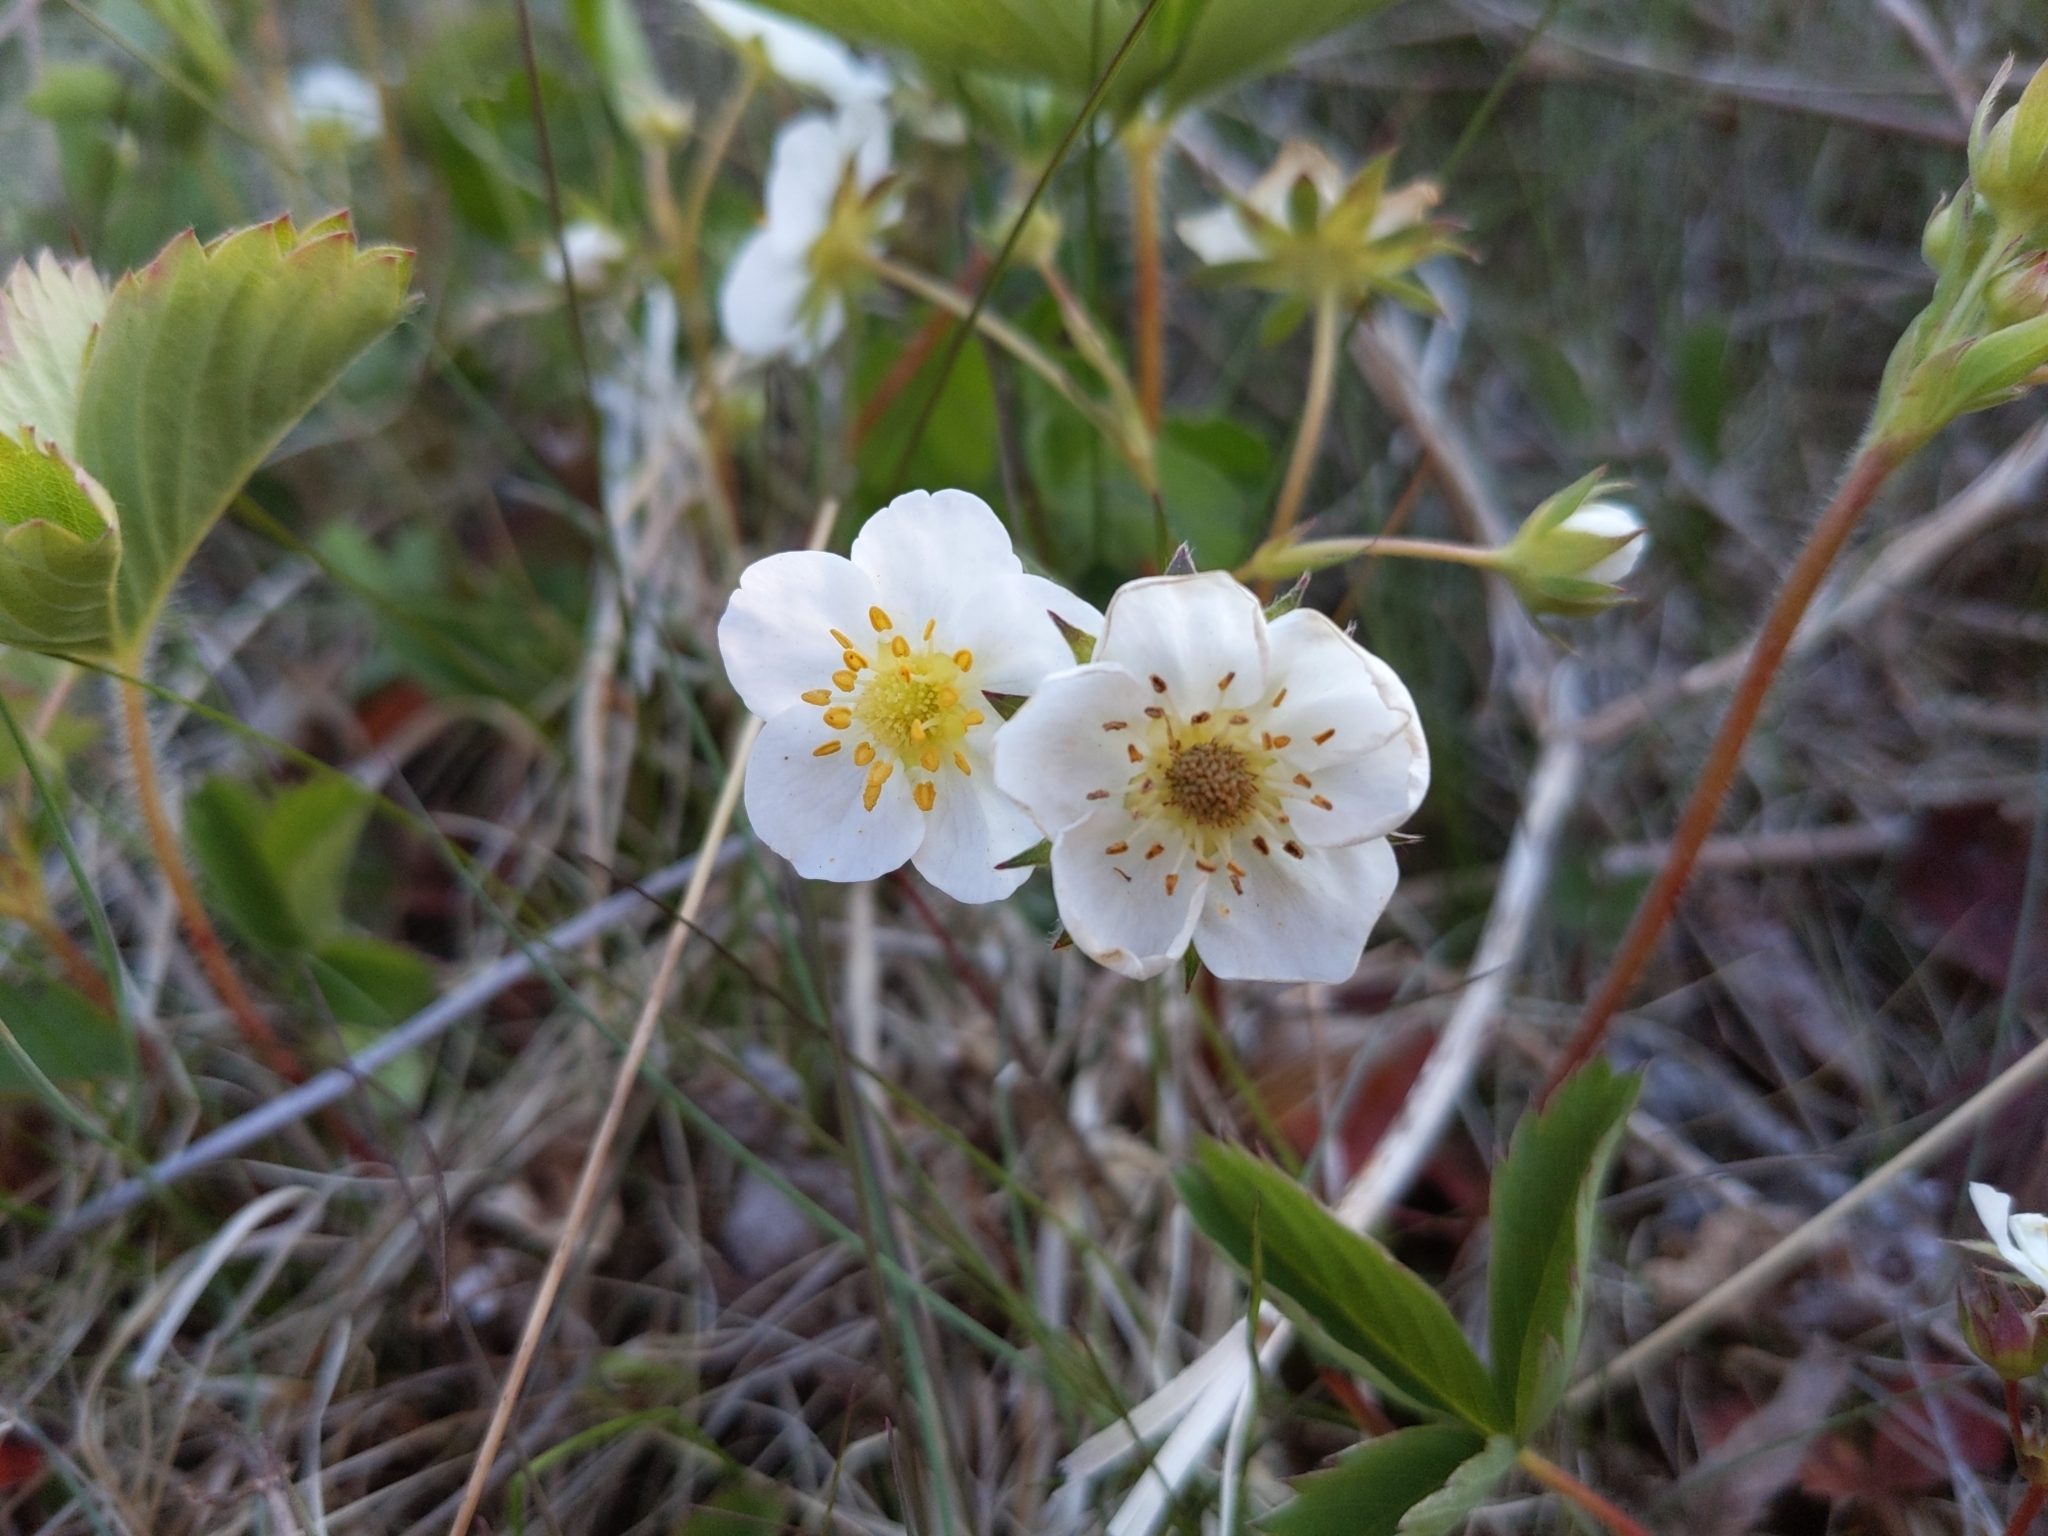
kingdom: Plantae
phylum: Tracheophyta
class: Magnoliopsida
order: Rosales
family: Rosaceae
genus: Fragaria
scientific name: Fragaria virginiana
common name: Thickleaved wild strawberry
